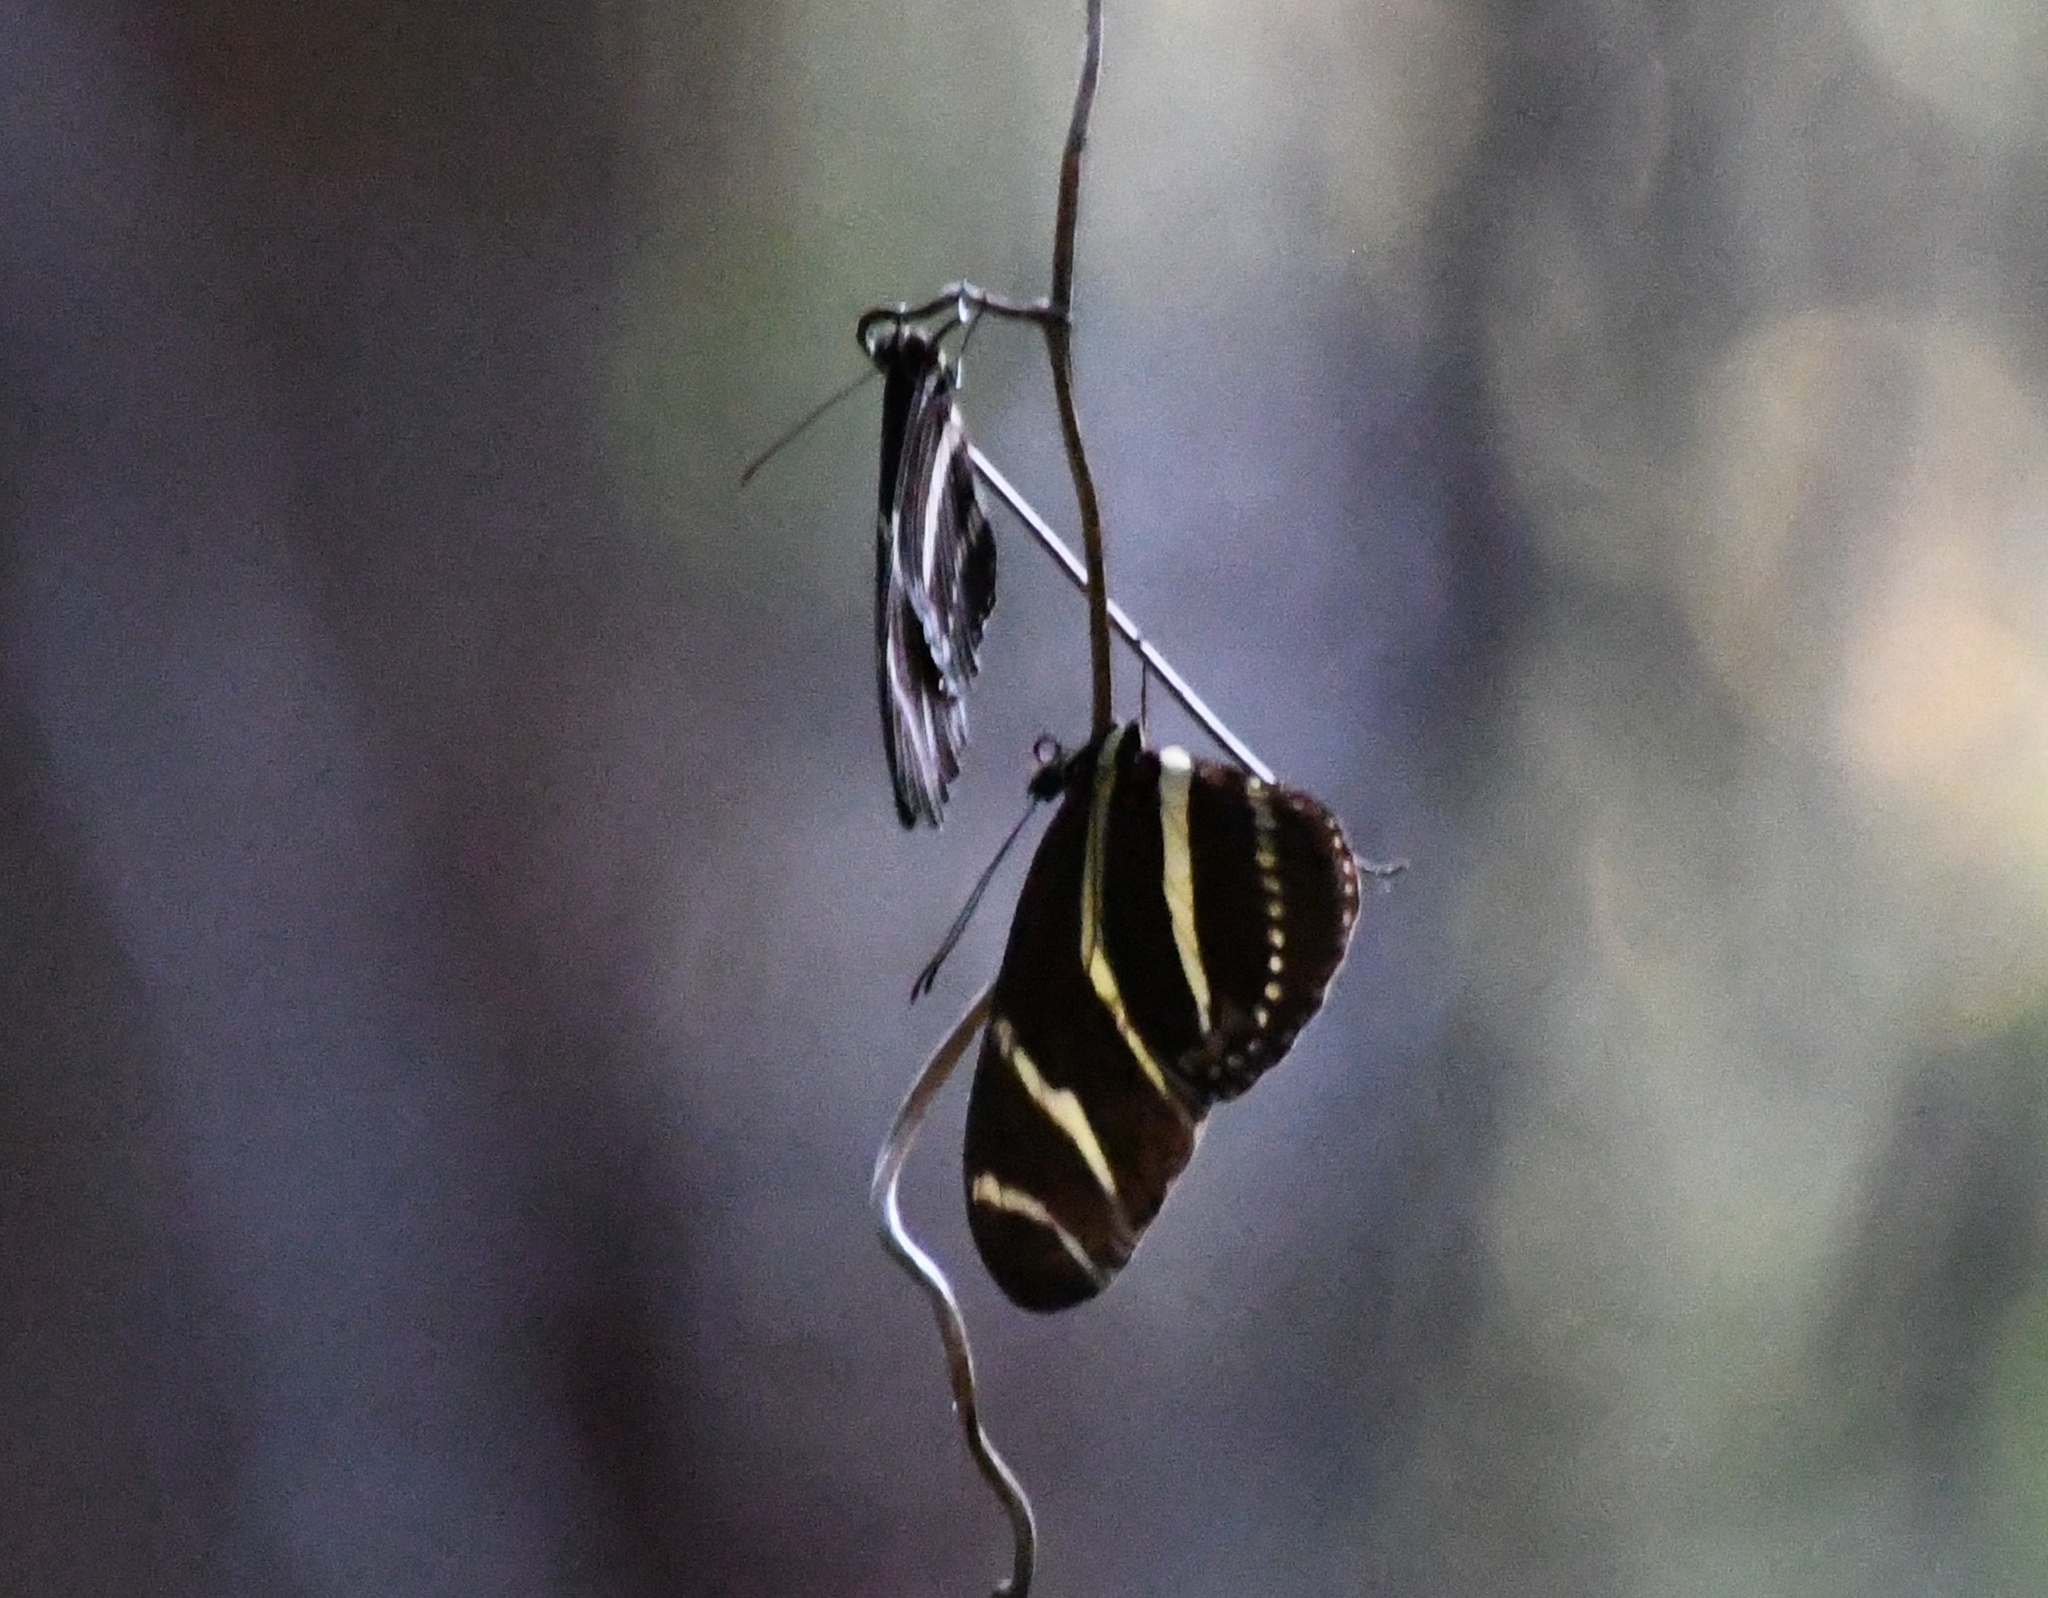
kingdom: Animalia
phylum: Arthropoda
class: Insecta
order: Lepidoptera
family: Nymphalidae
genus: Heliconius
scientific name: Heliconius charithonia
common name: Zebra long wing
